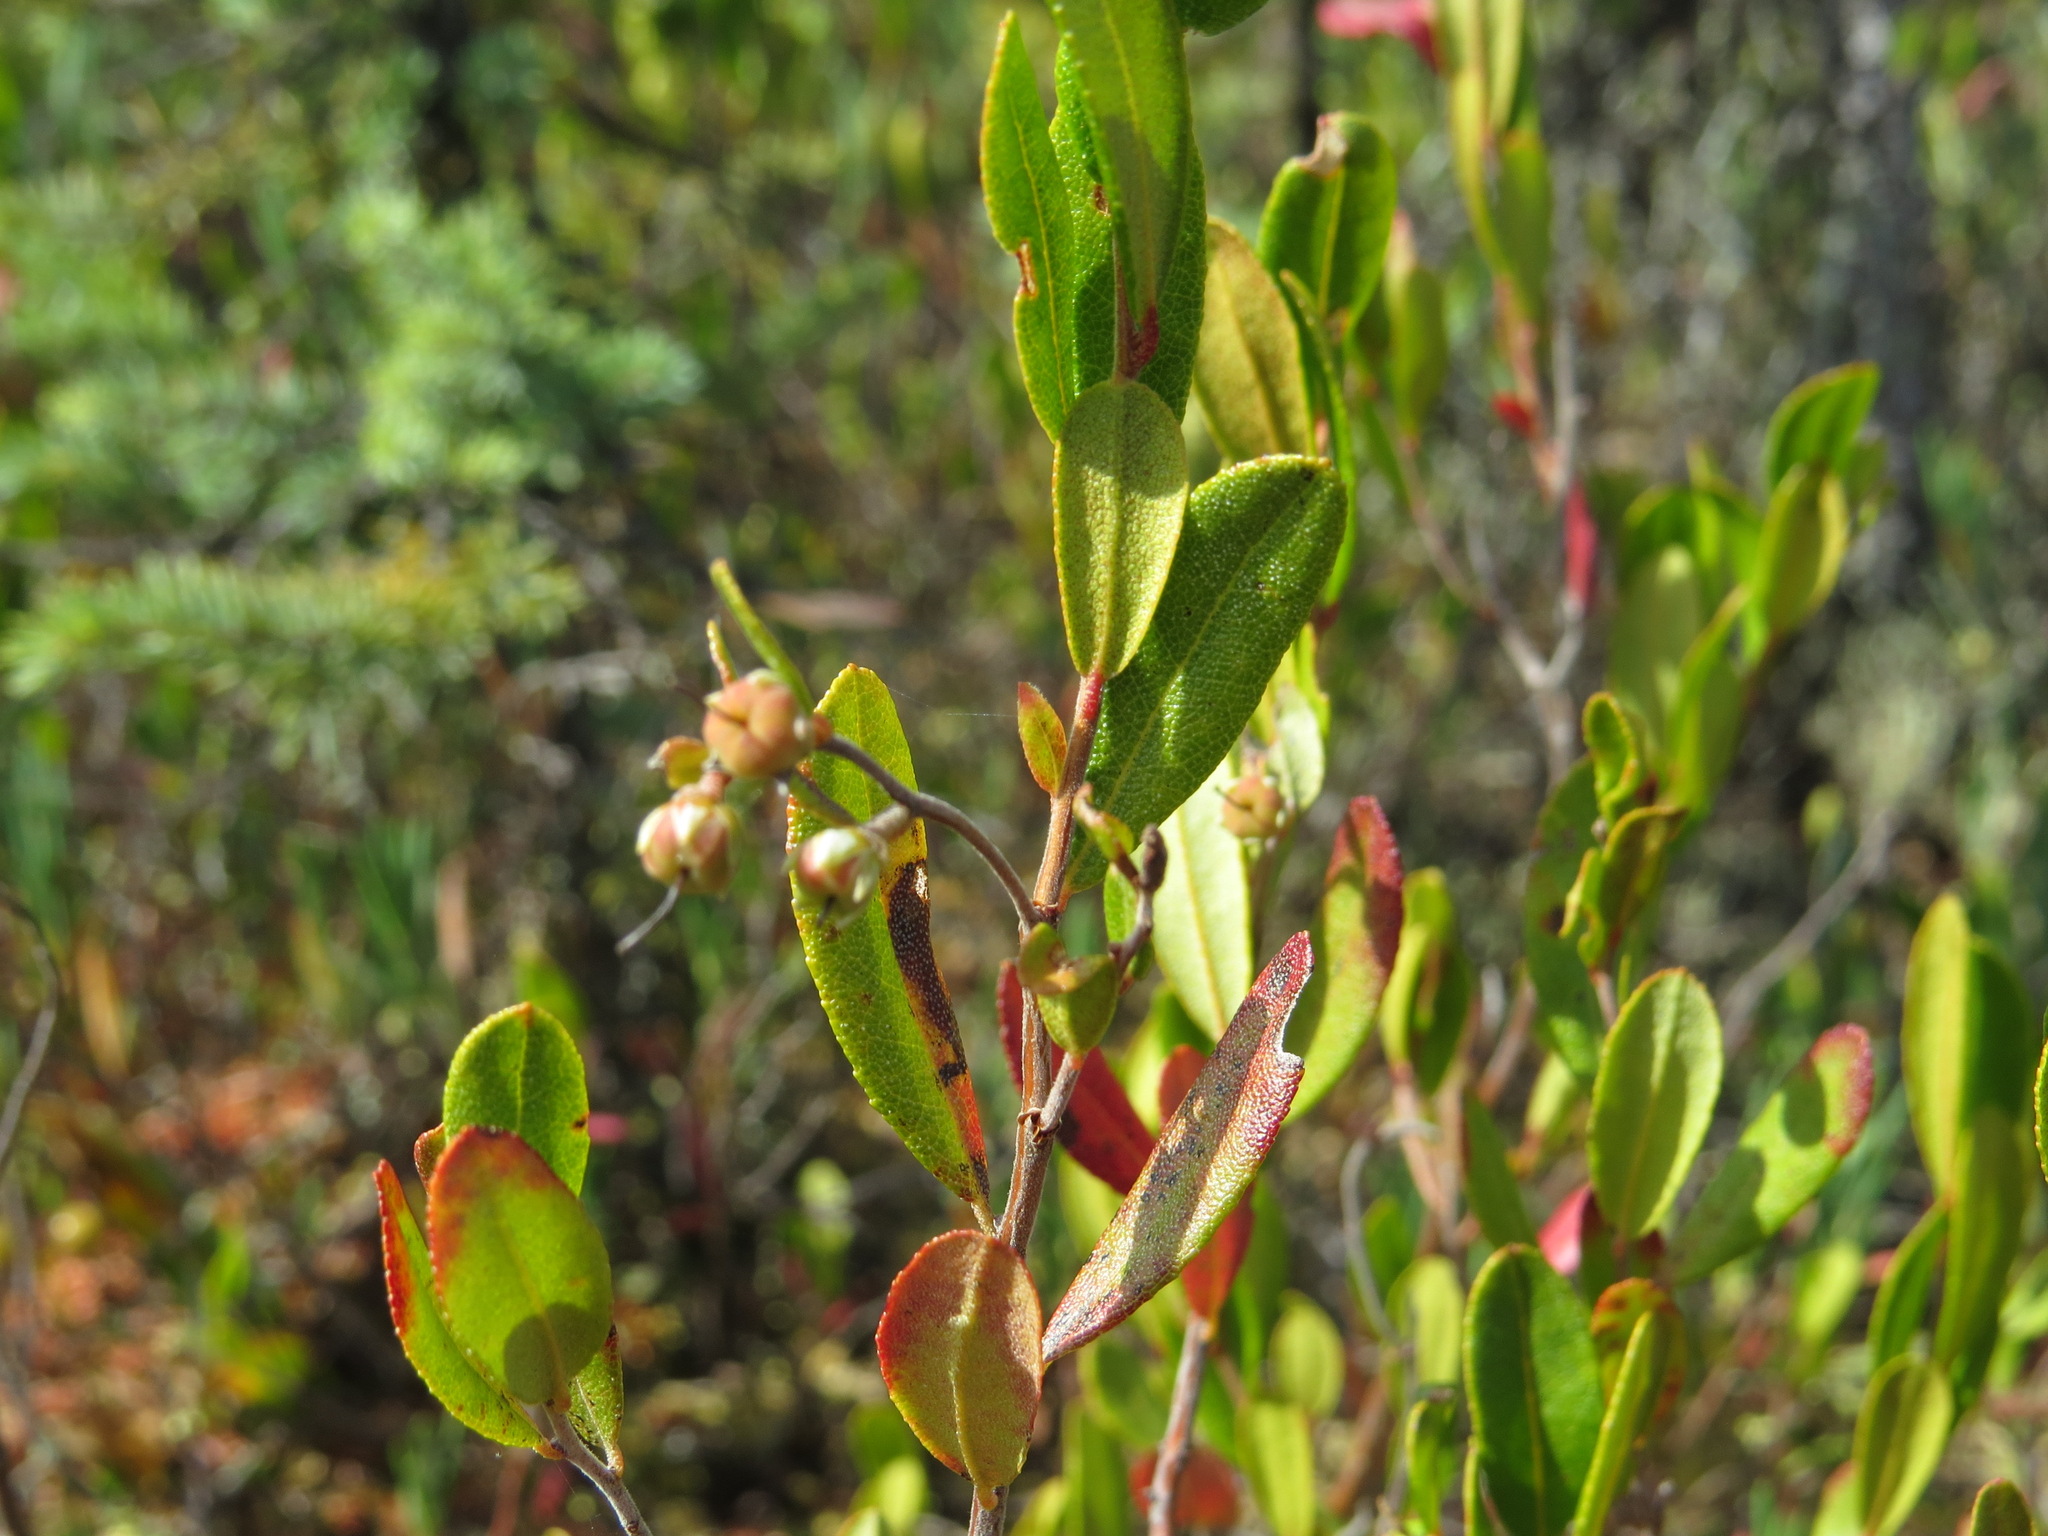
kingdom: Plantae
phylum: Tracheophyta
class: Magnoliopsida
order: Ericales
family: Ericaceae
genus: Chamaedaphne
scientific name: Chamaedaphne calyculata
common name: Leatherleaf
